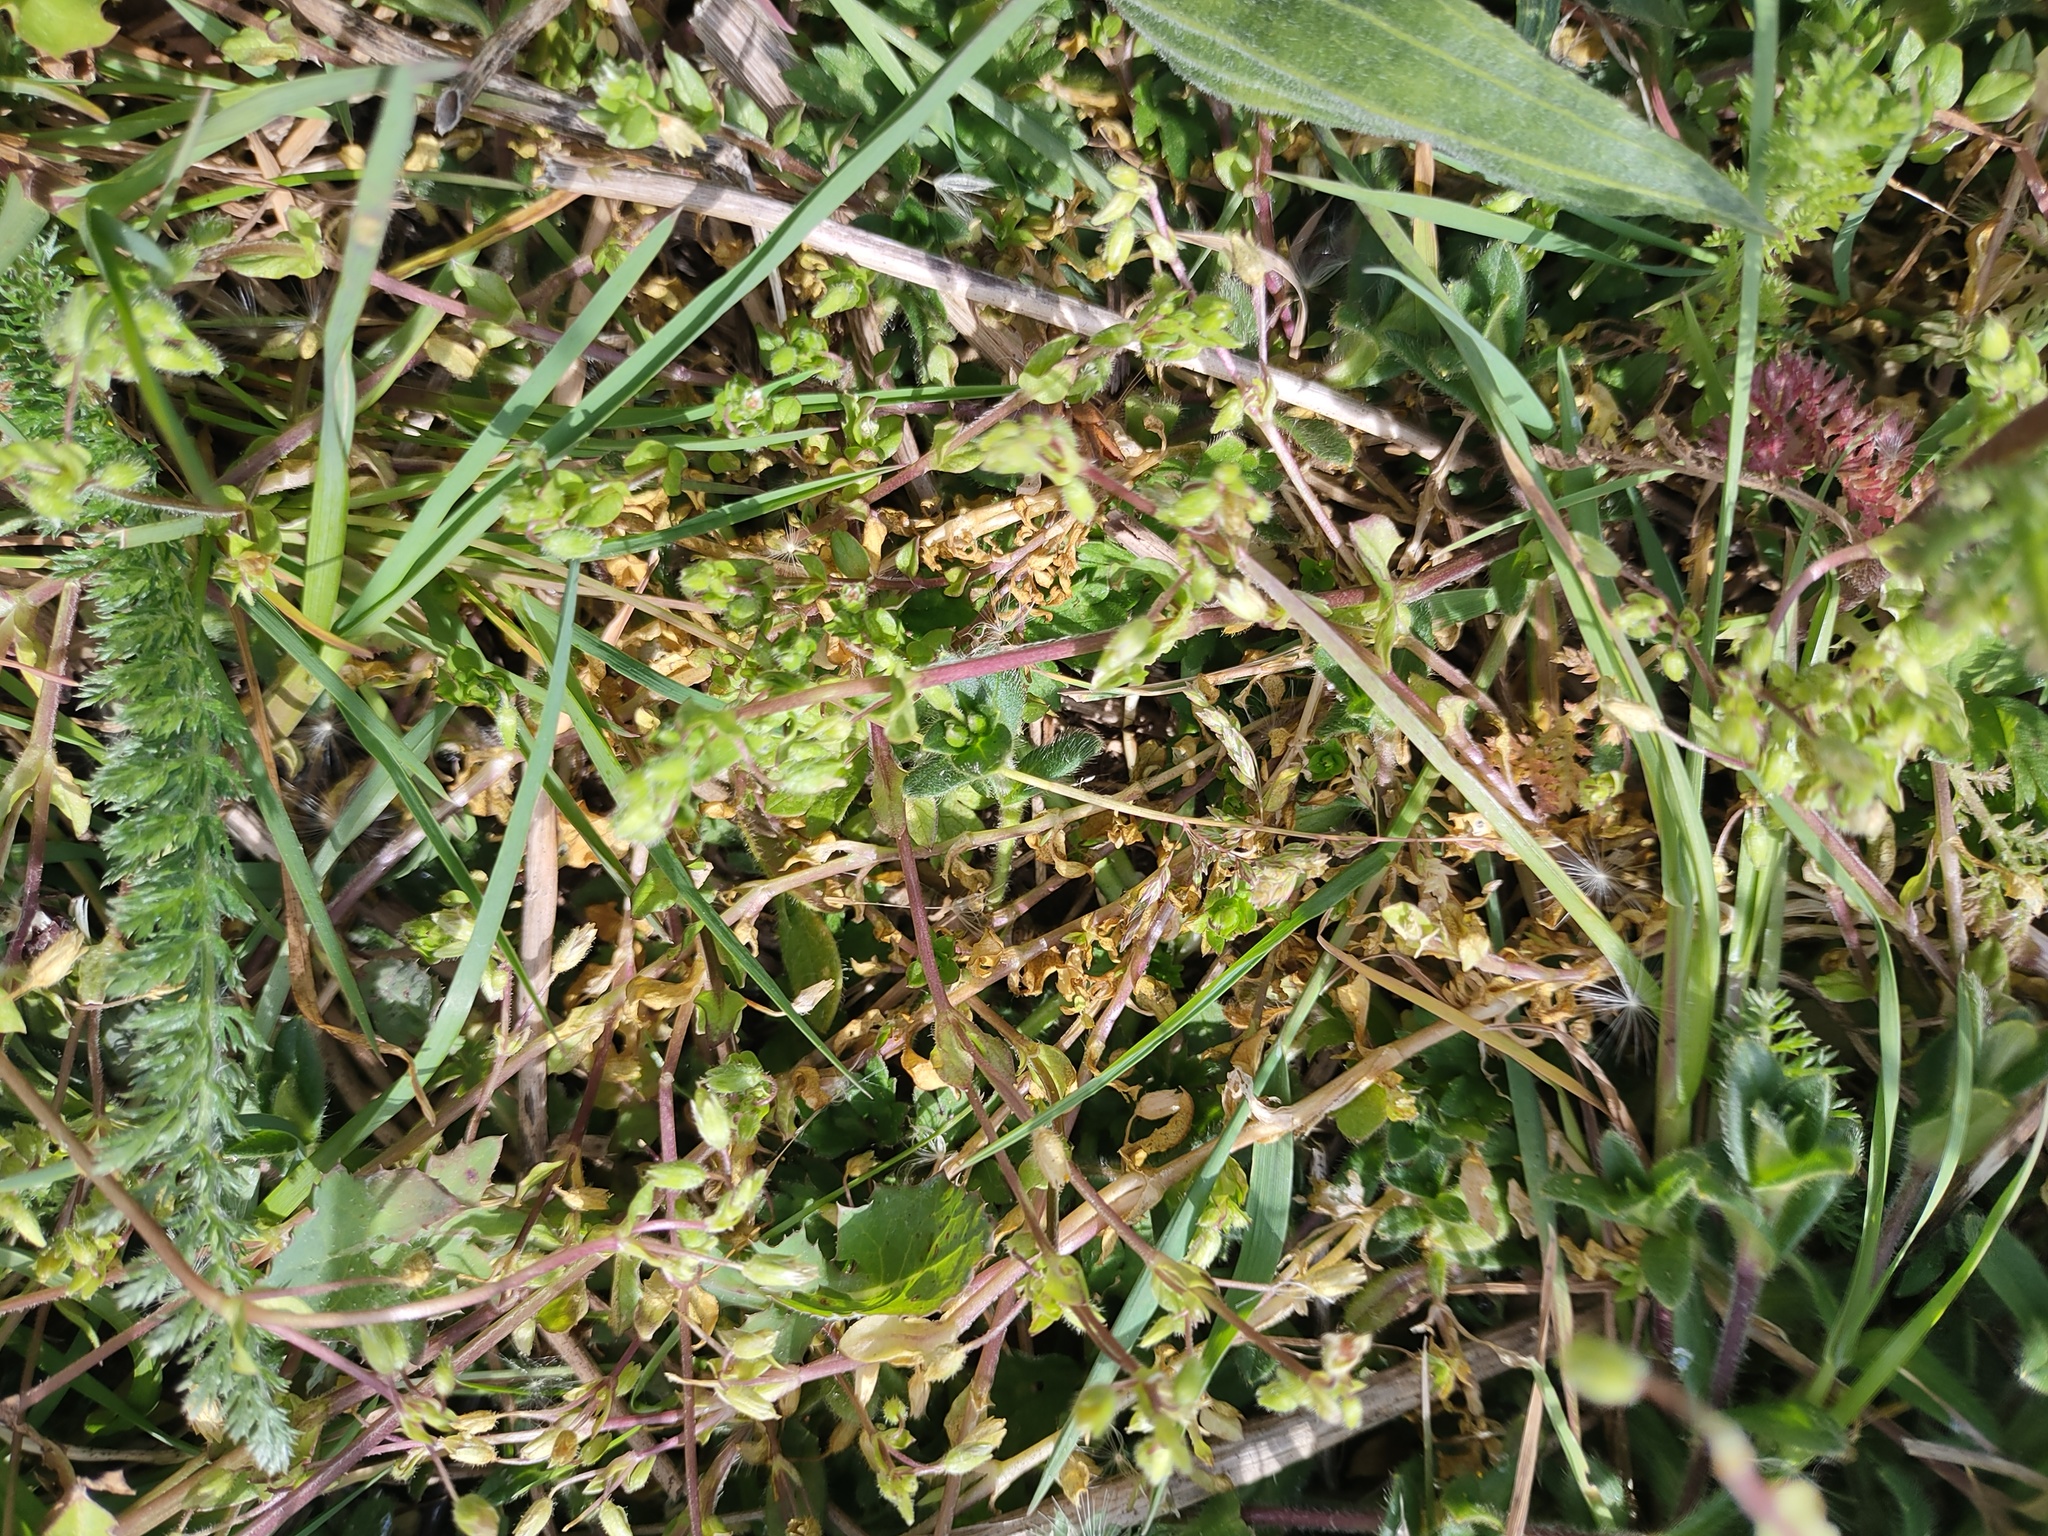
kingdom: Plantae
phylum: Tracheophyta
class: Magnoliopsida
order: Caryophyllales
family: Caryophyllaceae
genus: Stellaria
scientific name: Stellaria media
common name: Common chickweed
